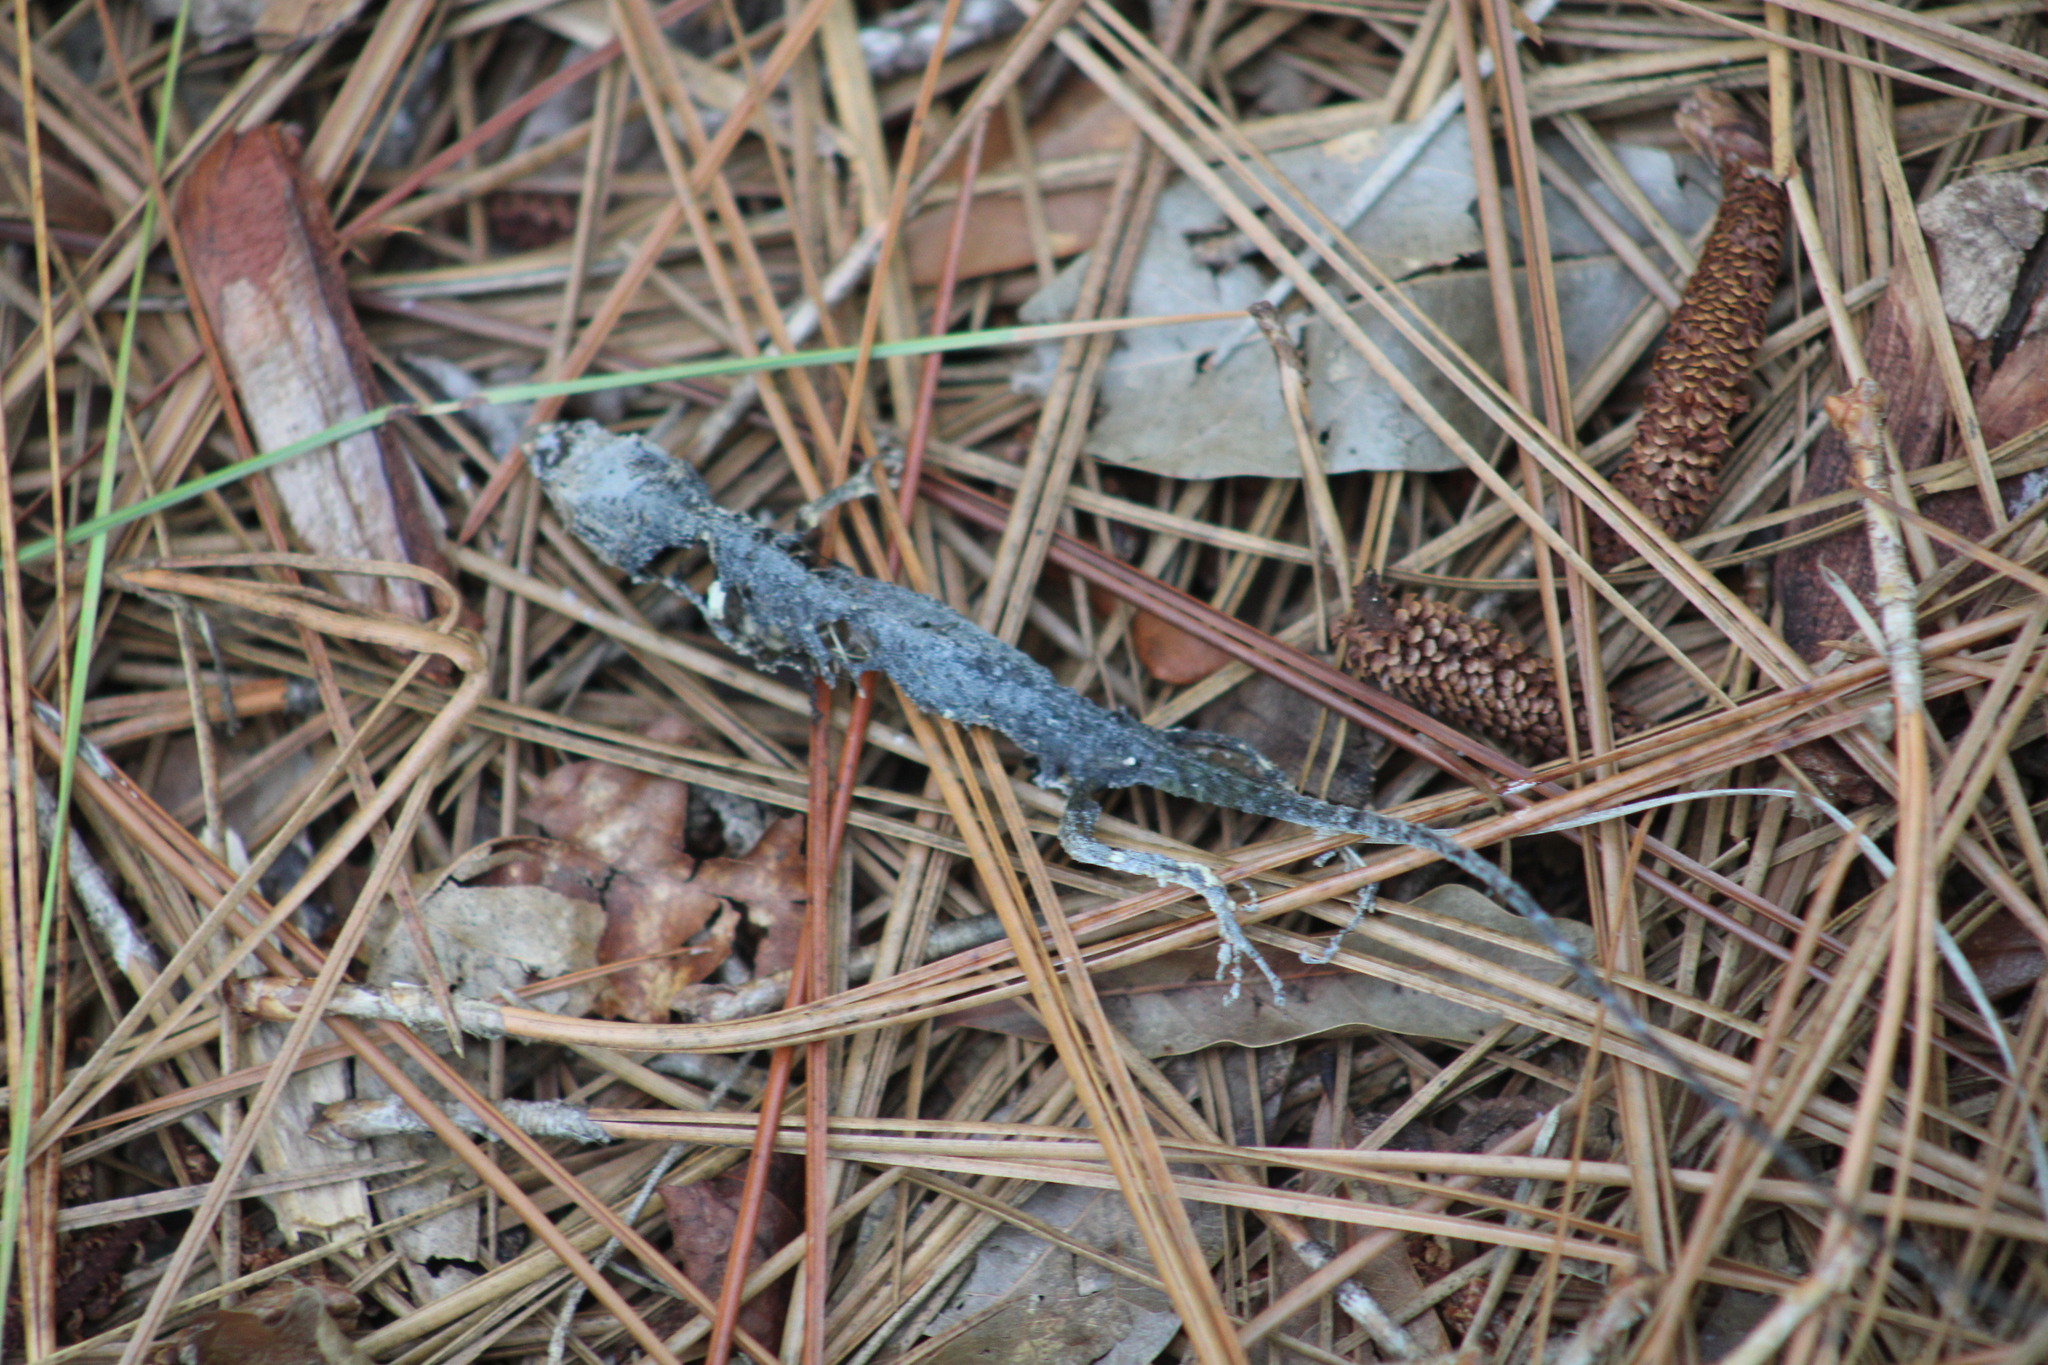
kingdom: Animalia
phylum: Chordata
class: Squamata
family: Dactyloidae
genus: Anolis
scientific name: Anolis carolinensis
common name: Green anole
